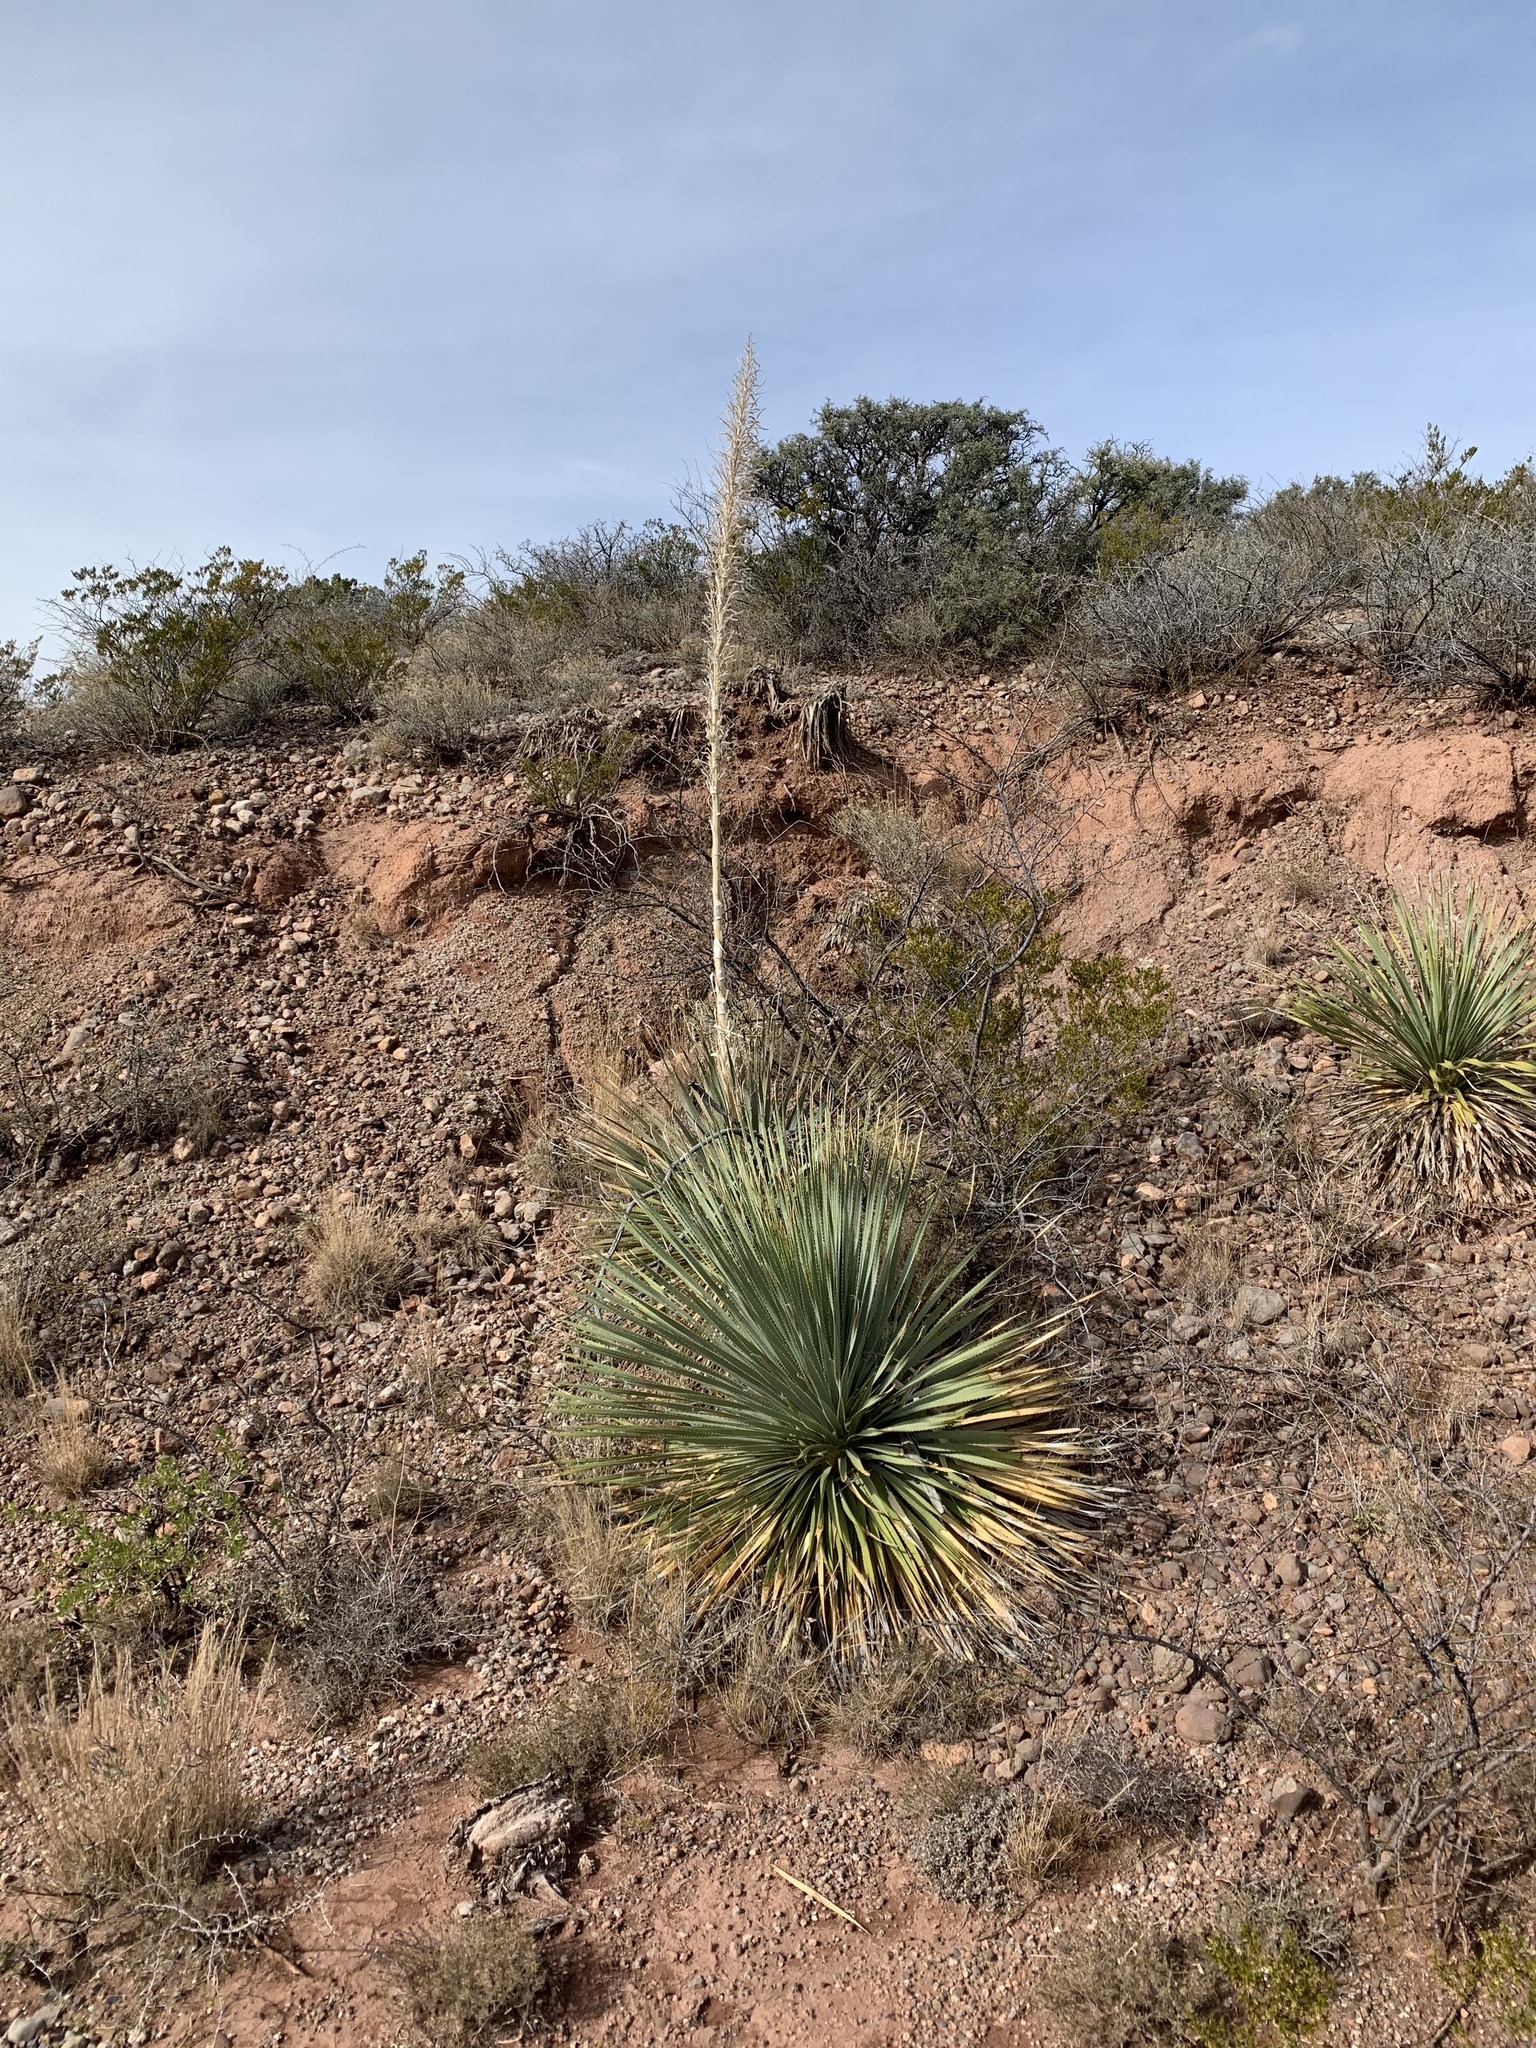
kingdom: Plantae
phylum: Tracheophyta
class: Liliopsida
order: Asparagales
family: Asparagaceae
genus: Dasylirion
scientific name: Dasylirion wheeleri
